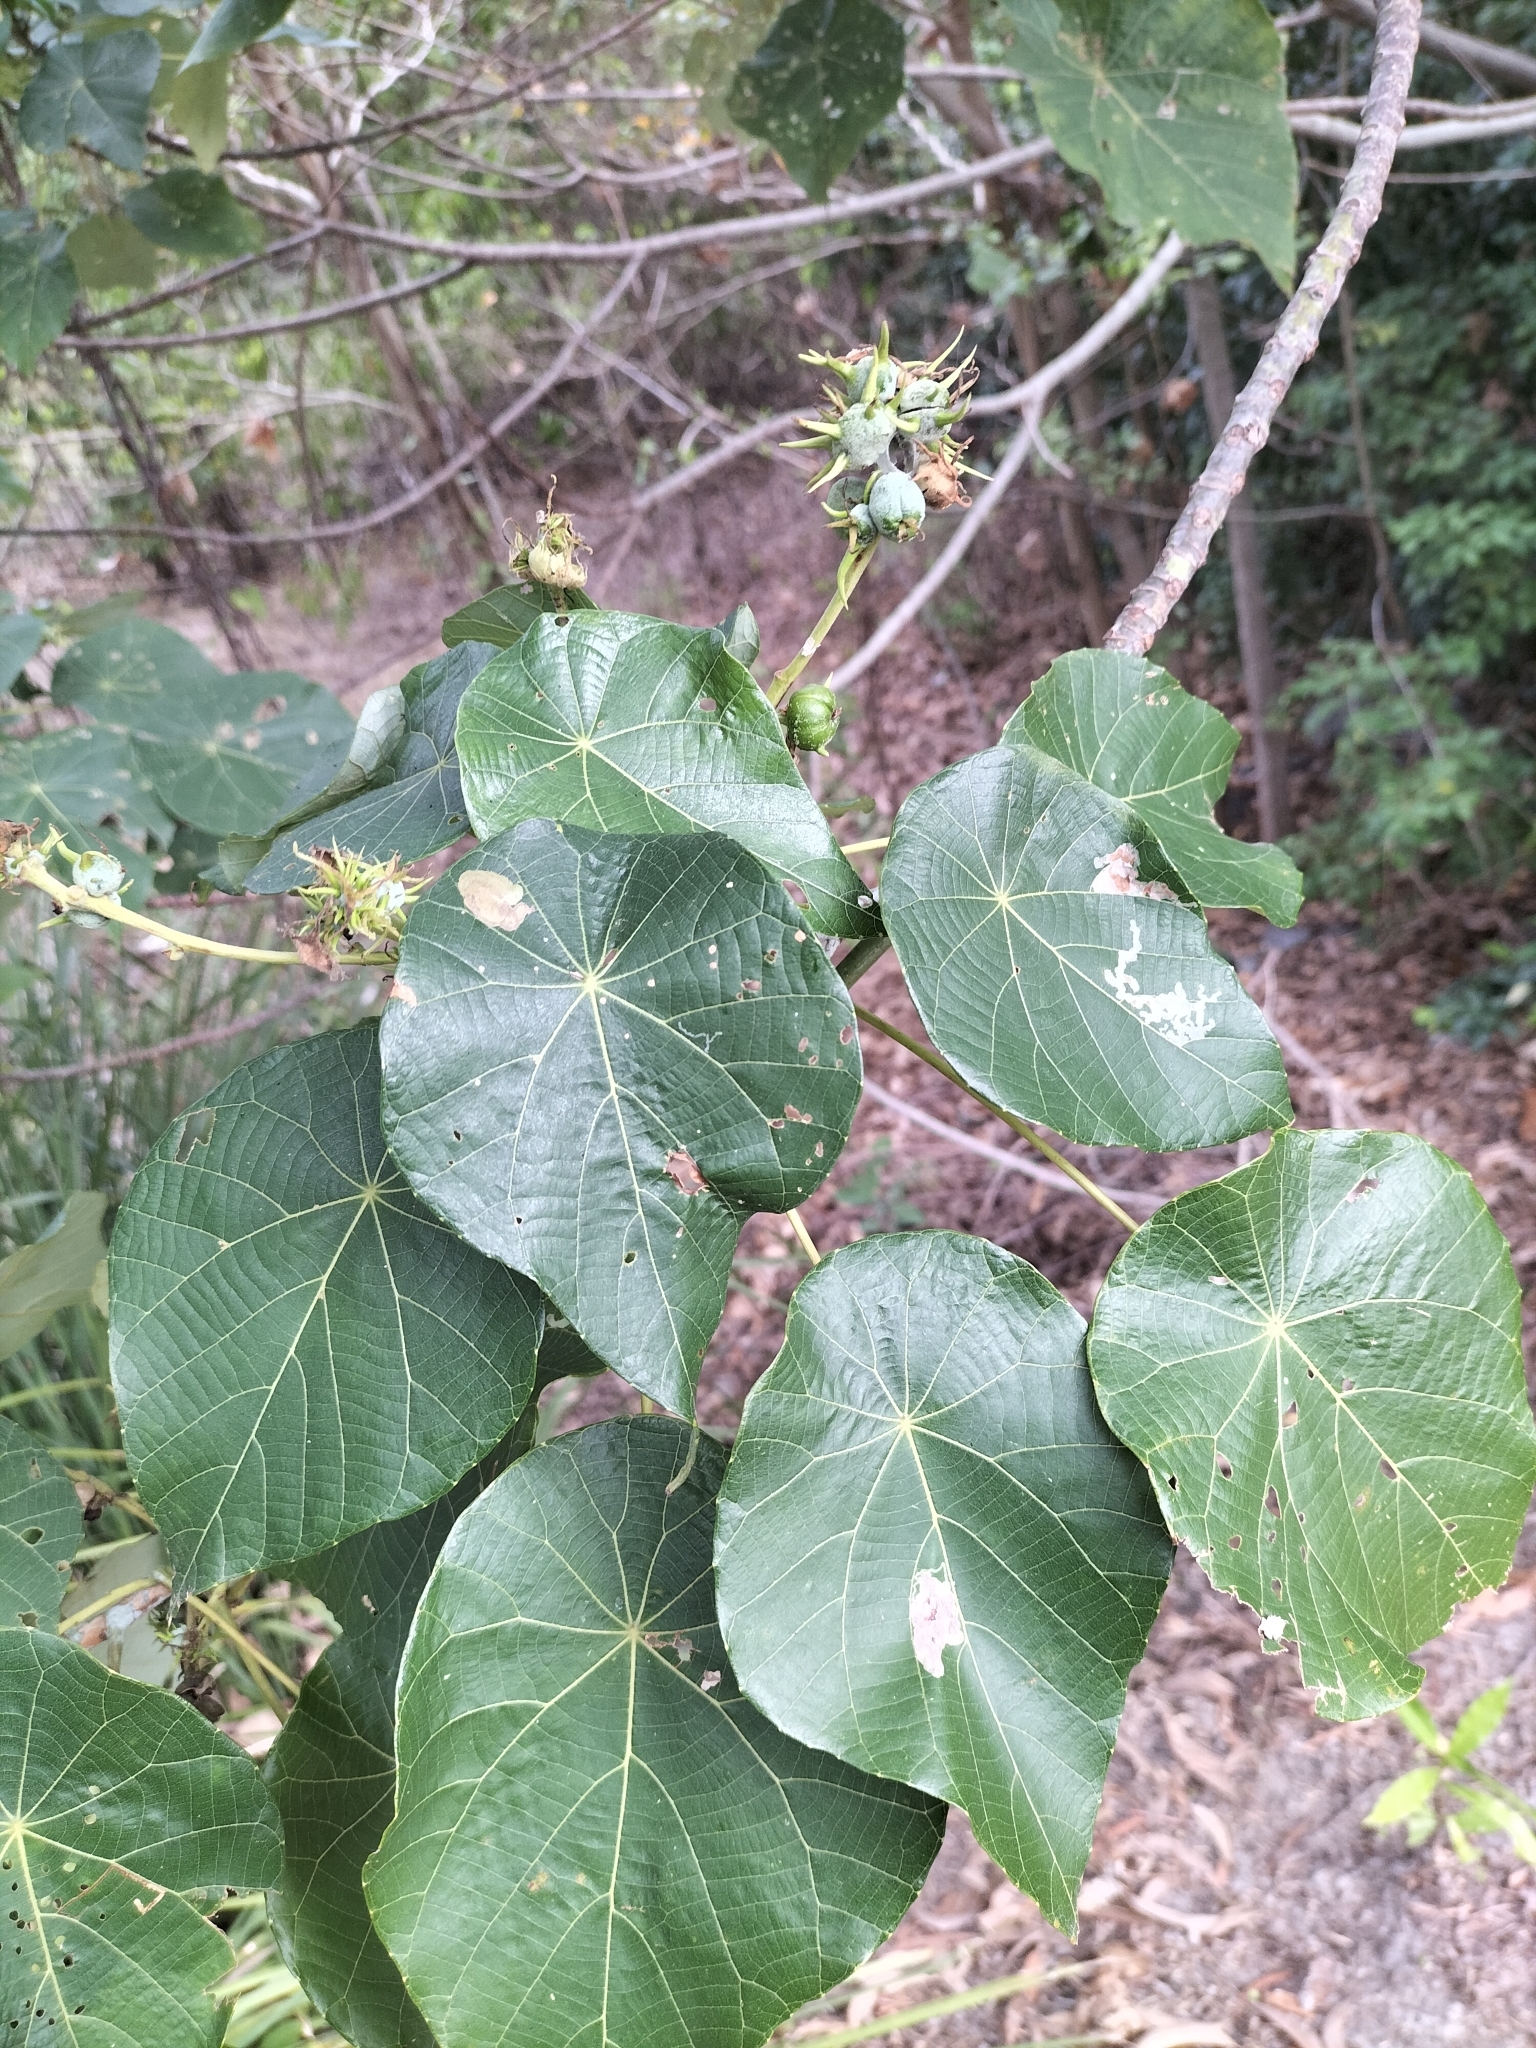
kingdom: Plantae
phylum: Tracheophyta
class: Magnoliopsida
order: Malpighiales
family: Euphorbiaceae
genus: Macaranga
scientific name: Macaranga tanarius
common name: Parasol leaf tree
